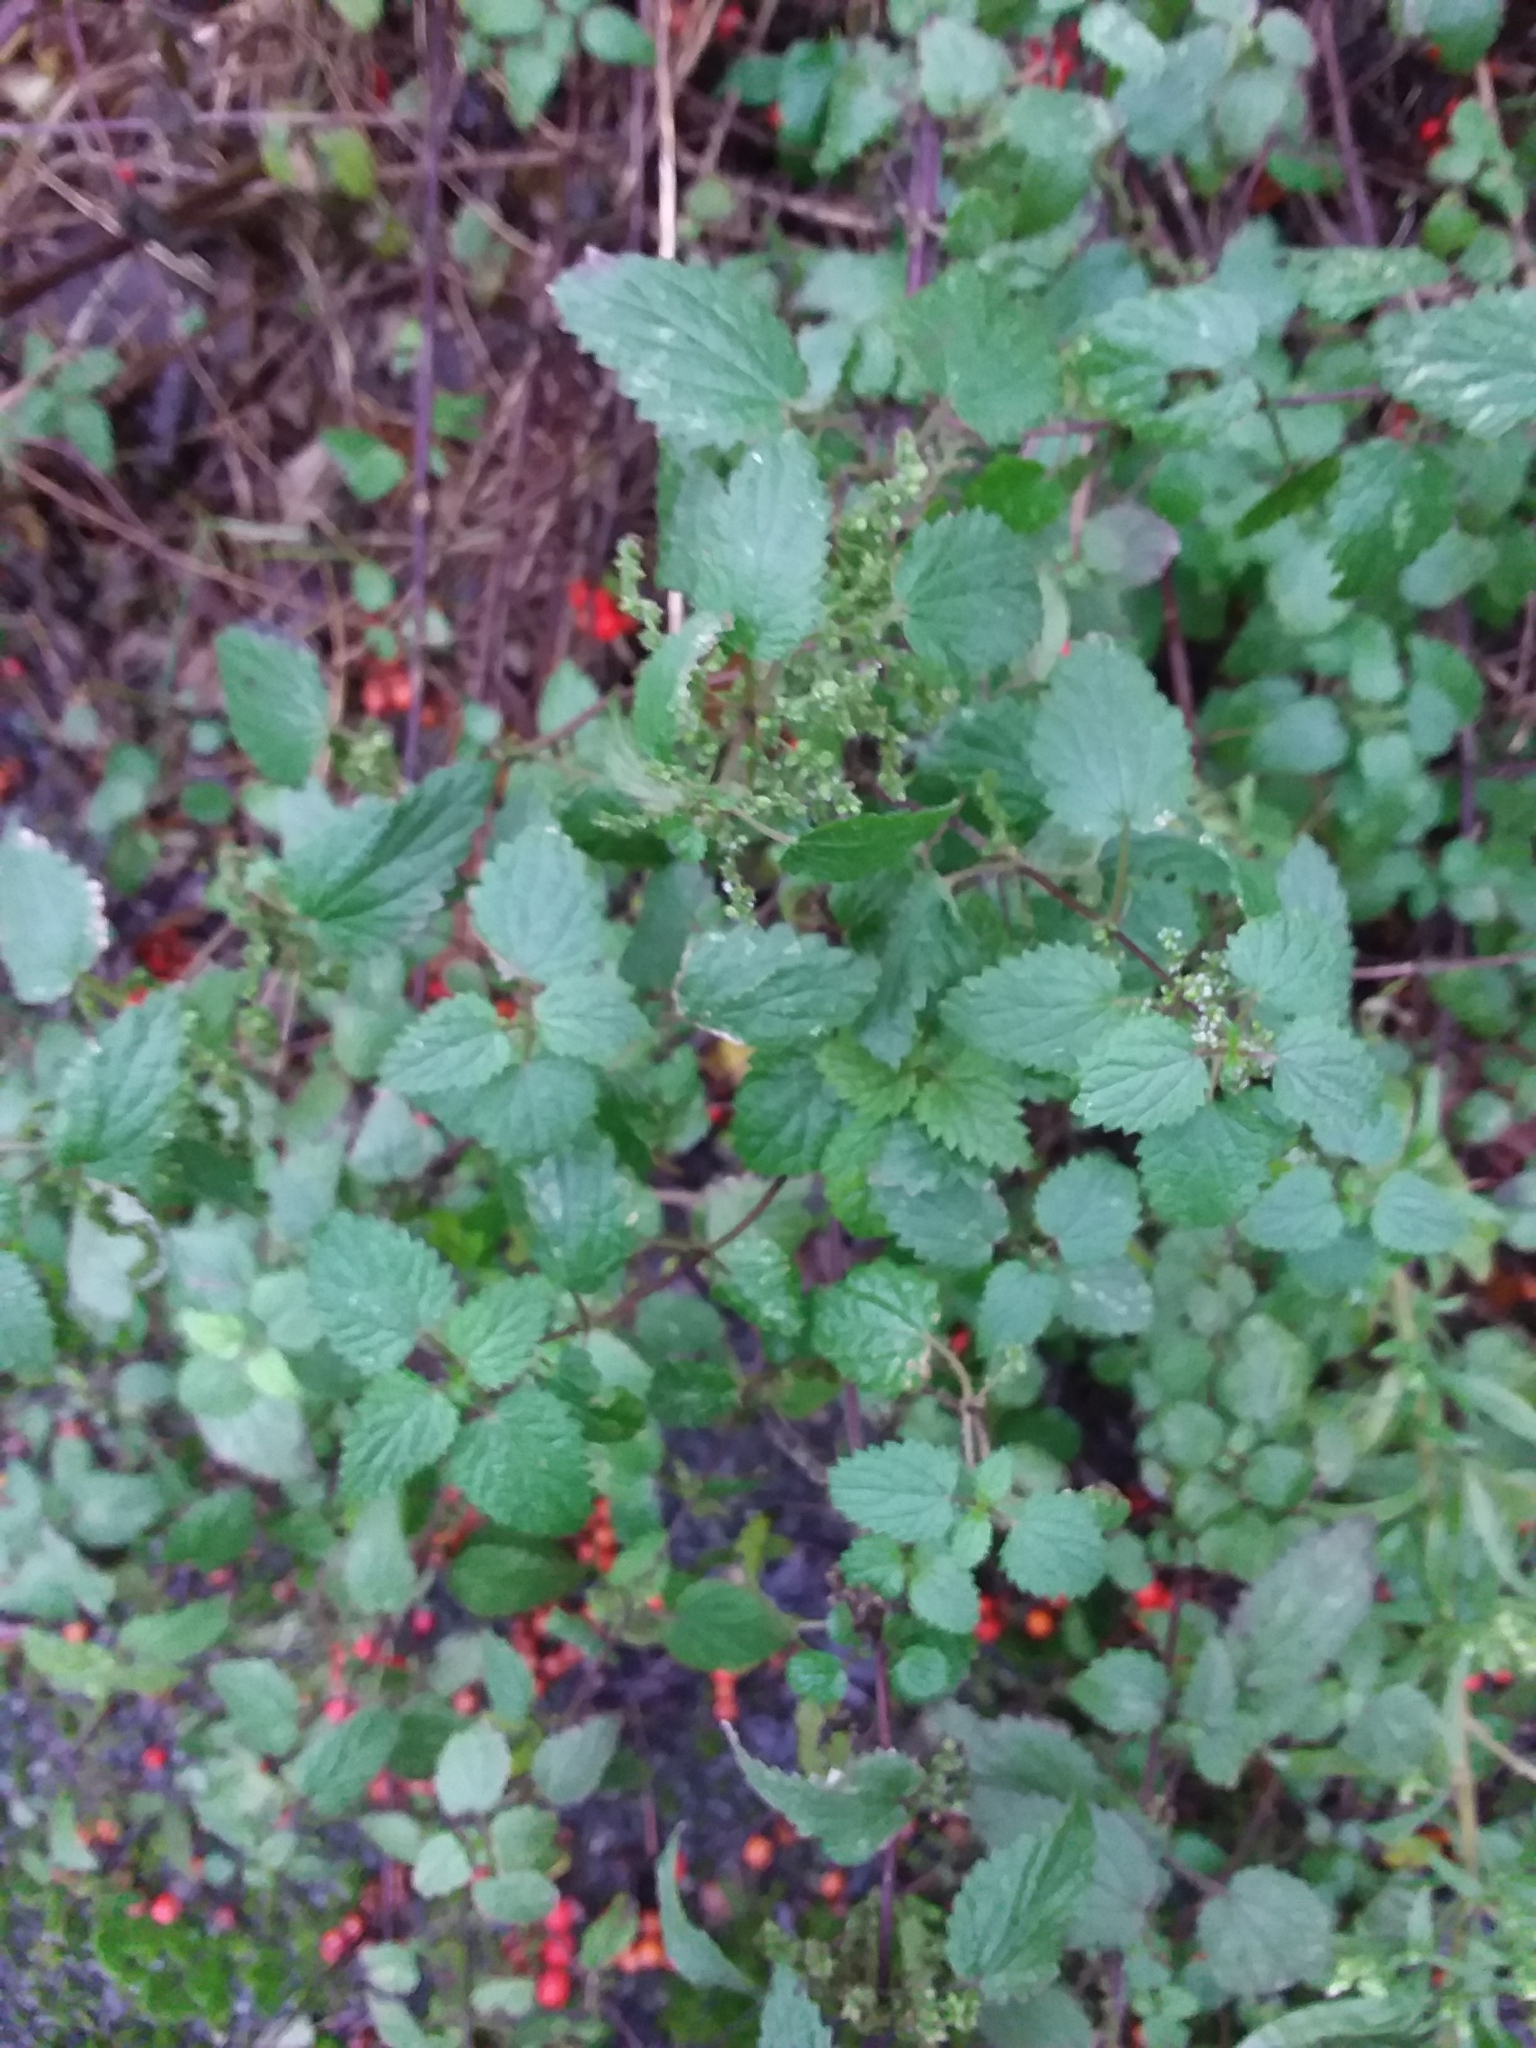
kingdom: Plantae
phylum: Tracheophyta
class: Magnoliopsida
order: Rosales
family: Urticaceae
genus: Urtica
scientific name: Urtica dioica
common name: Common nettle
